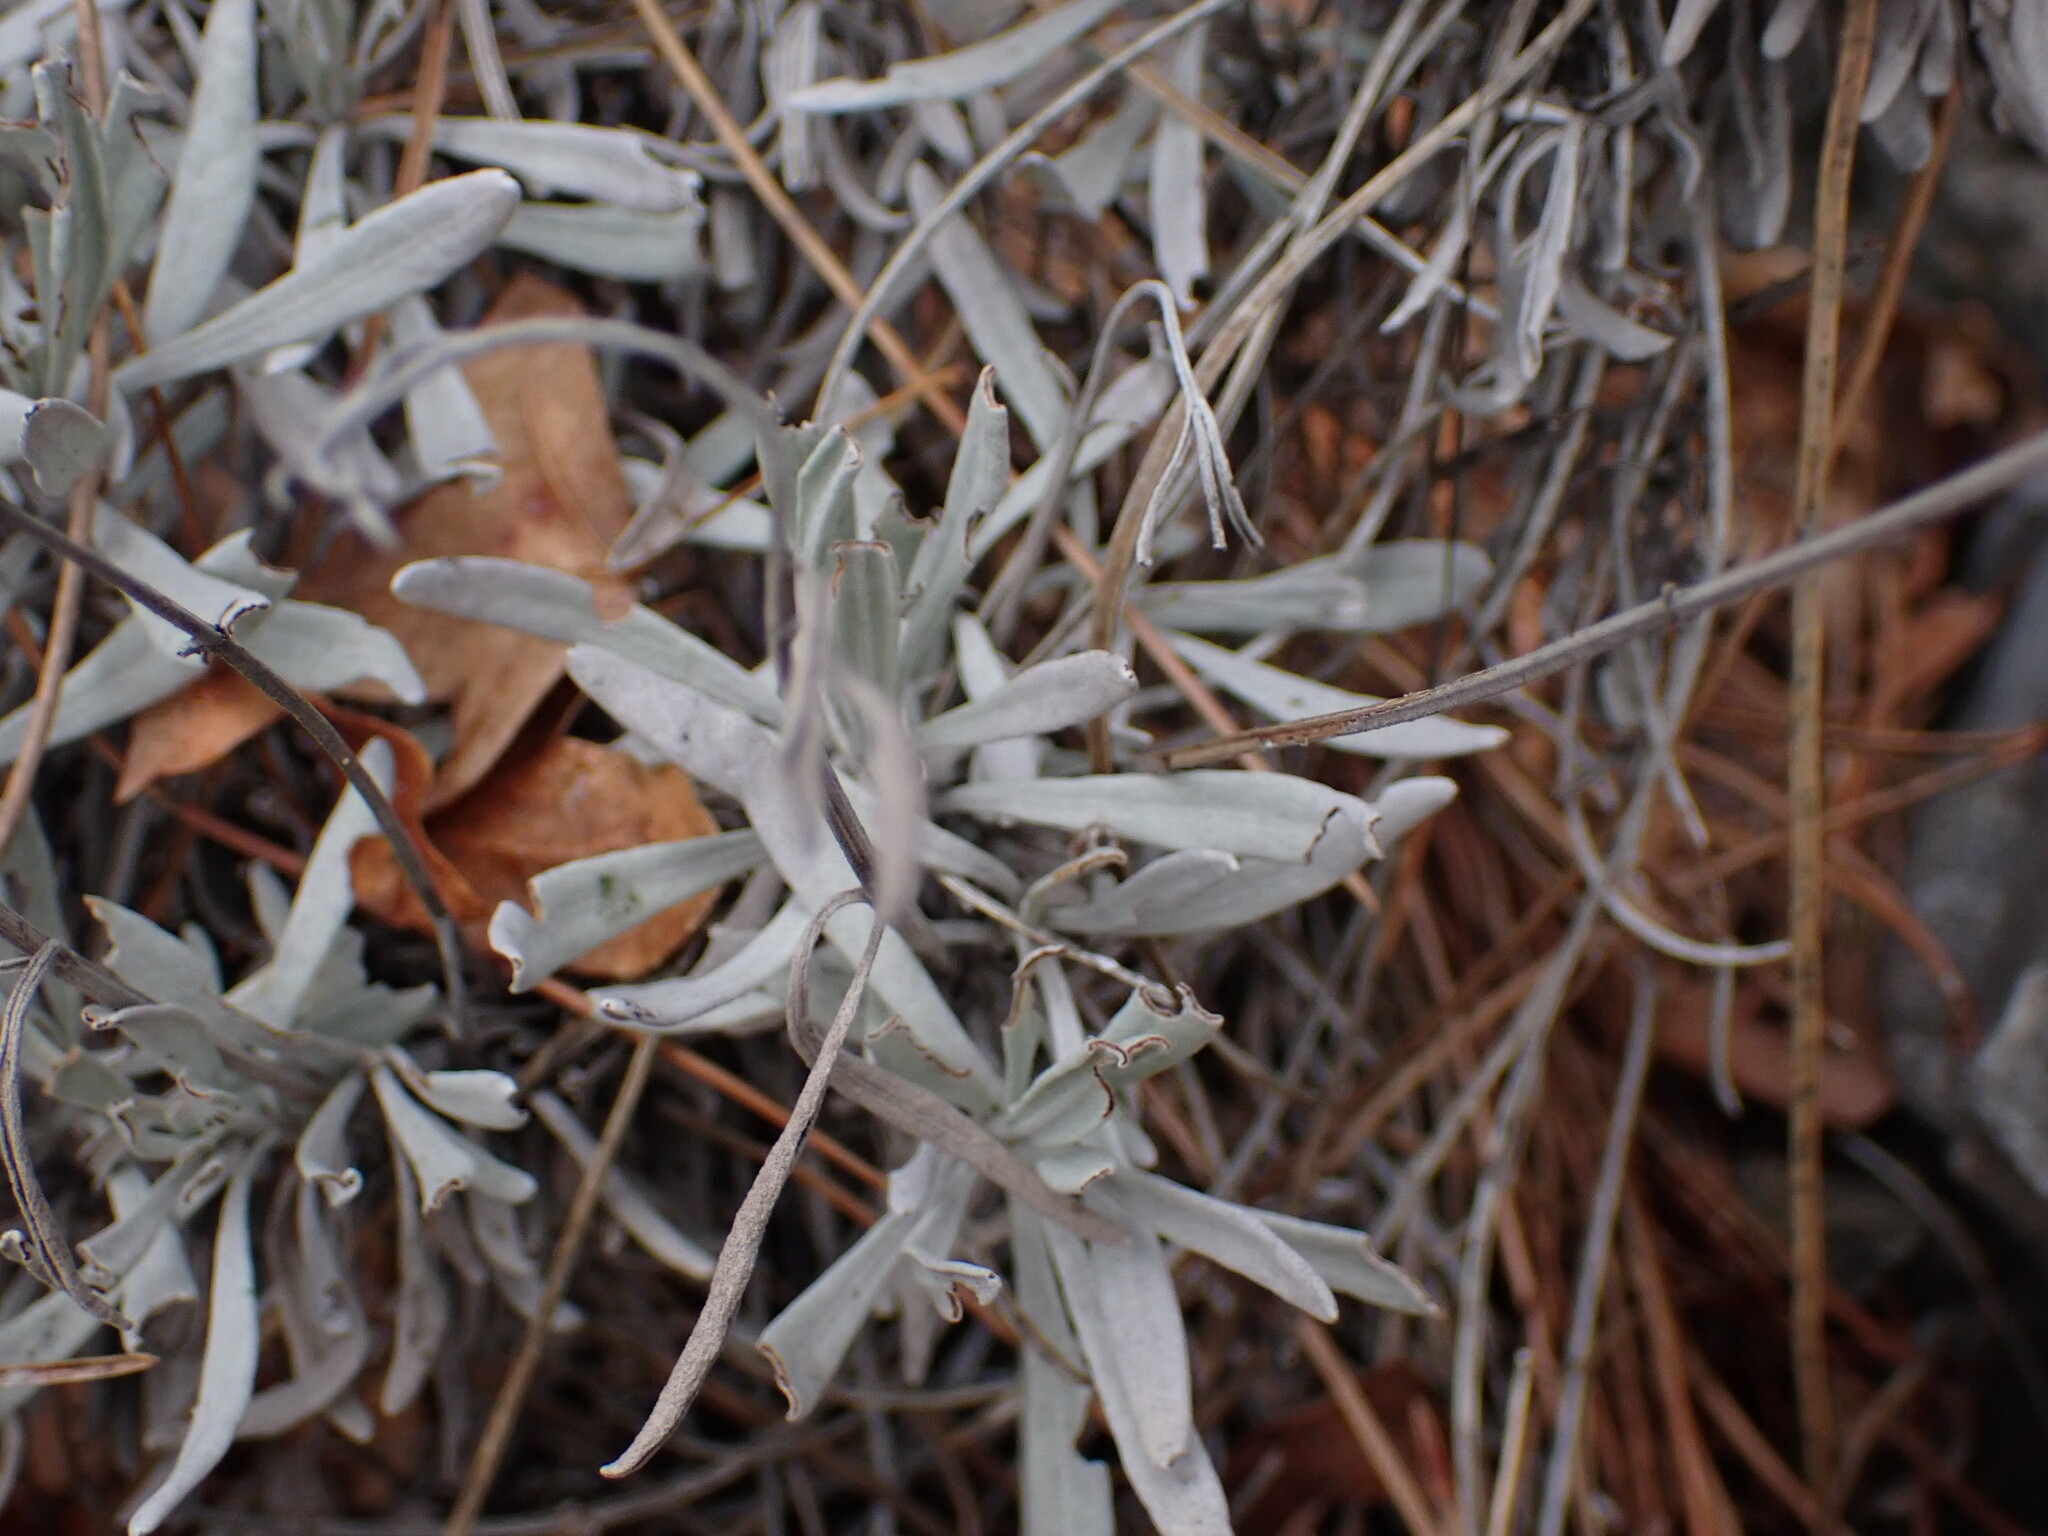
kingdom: Plantae
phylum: Tracheophyta
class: Magnoliopsida
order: Lamiales
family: Lamiaceae
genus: Lavandula
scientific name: Lavandula latifolia
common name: Spike lavendar
